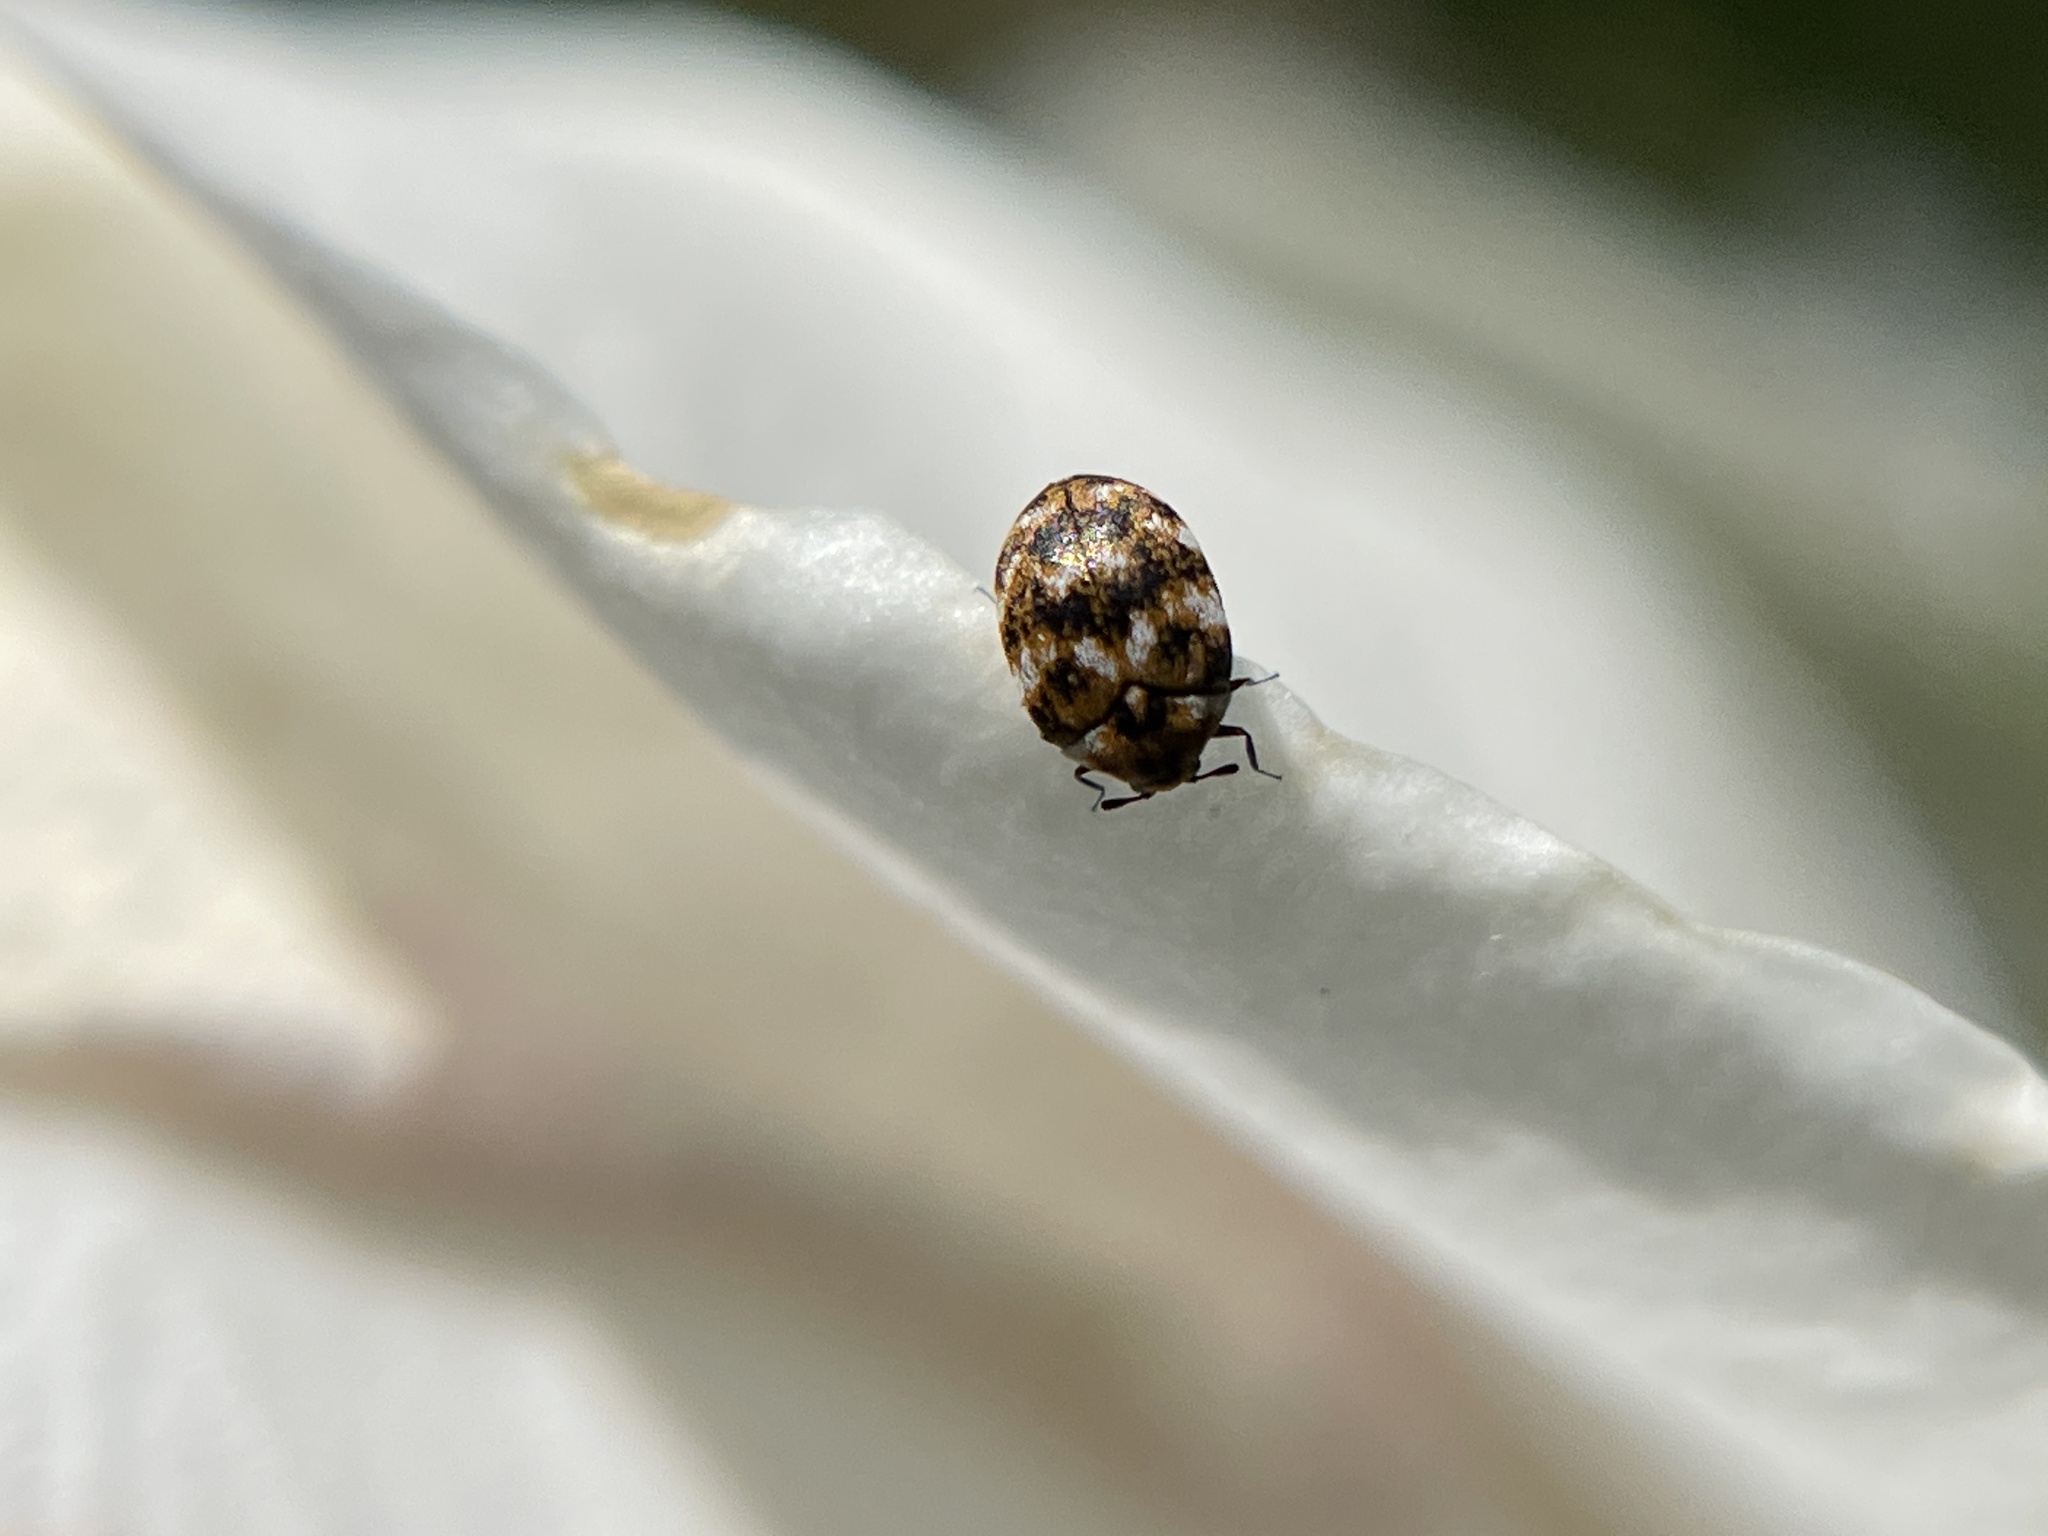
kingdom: Animalia
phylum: Arthropoda
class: Insecta
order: Coleoptera
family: Dermestidae
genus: Anthrenus
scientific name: Anthrenus verbasci
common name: Varied carpet beetle
